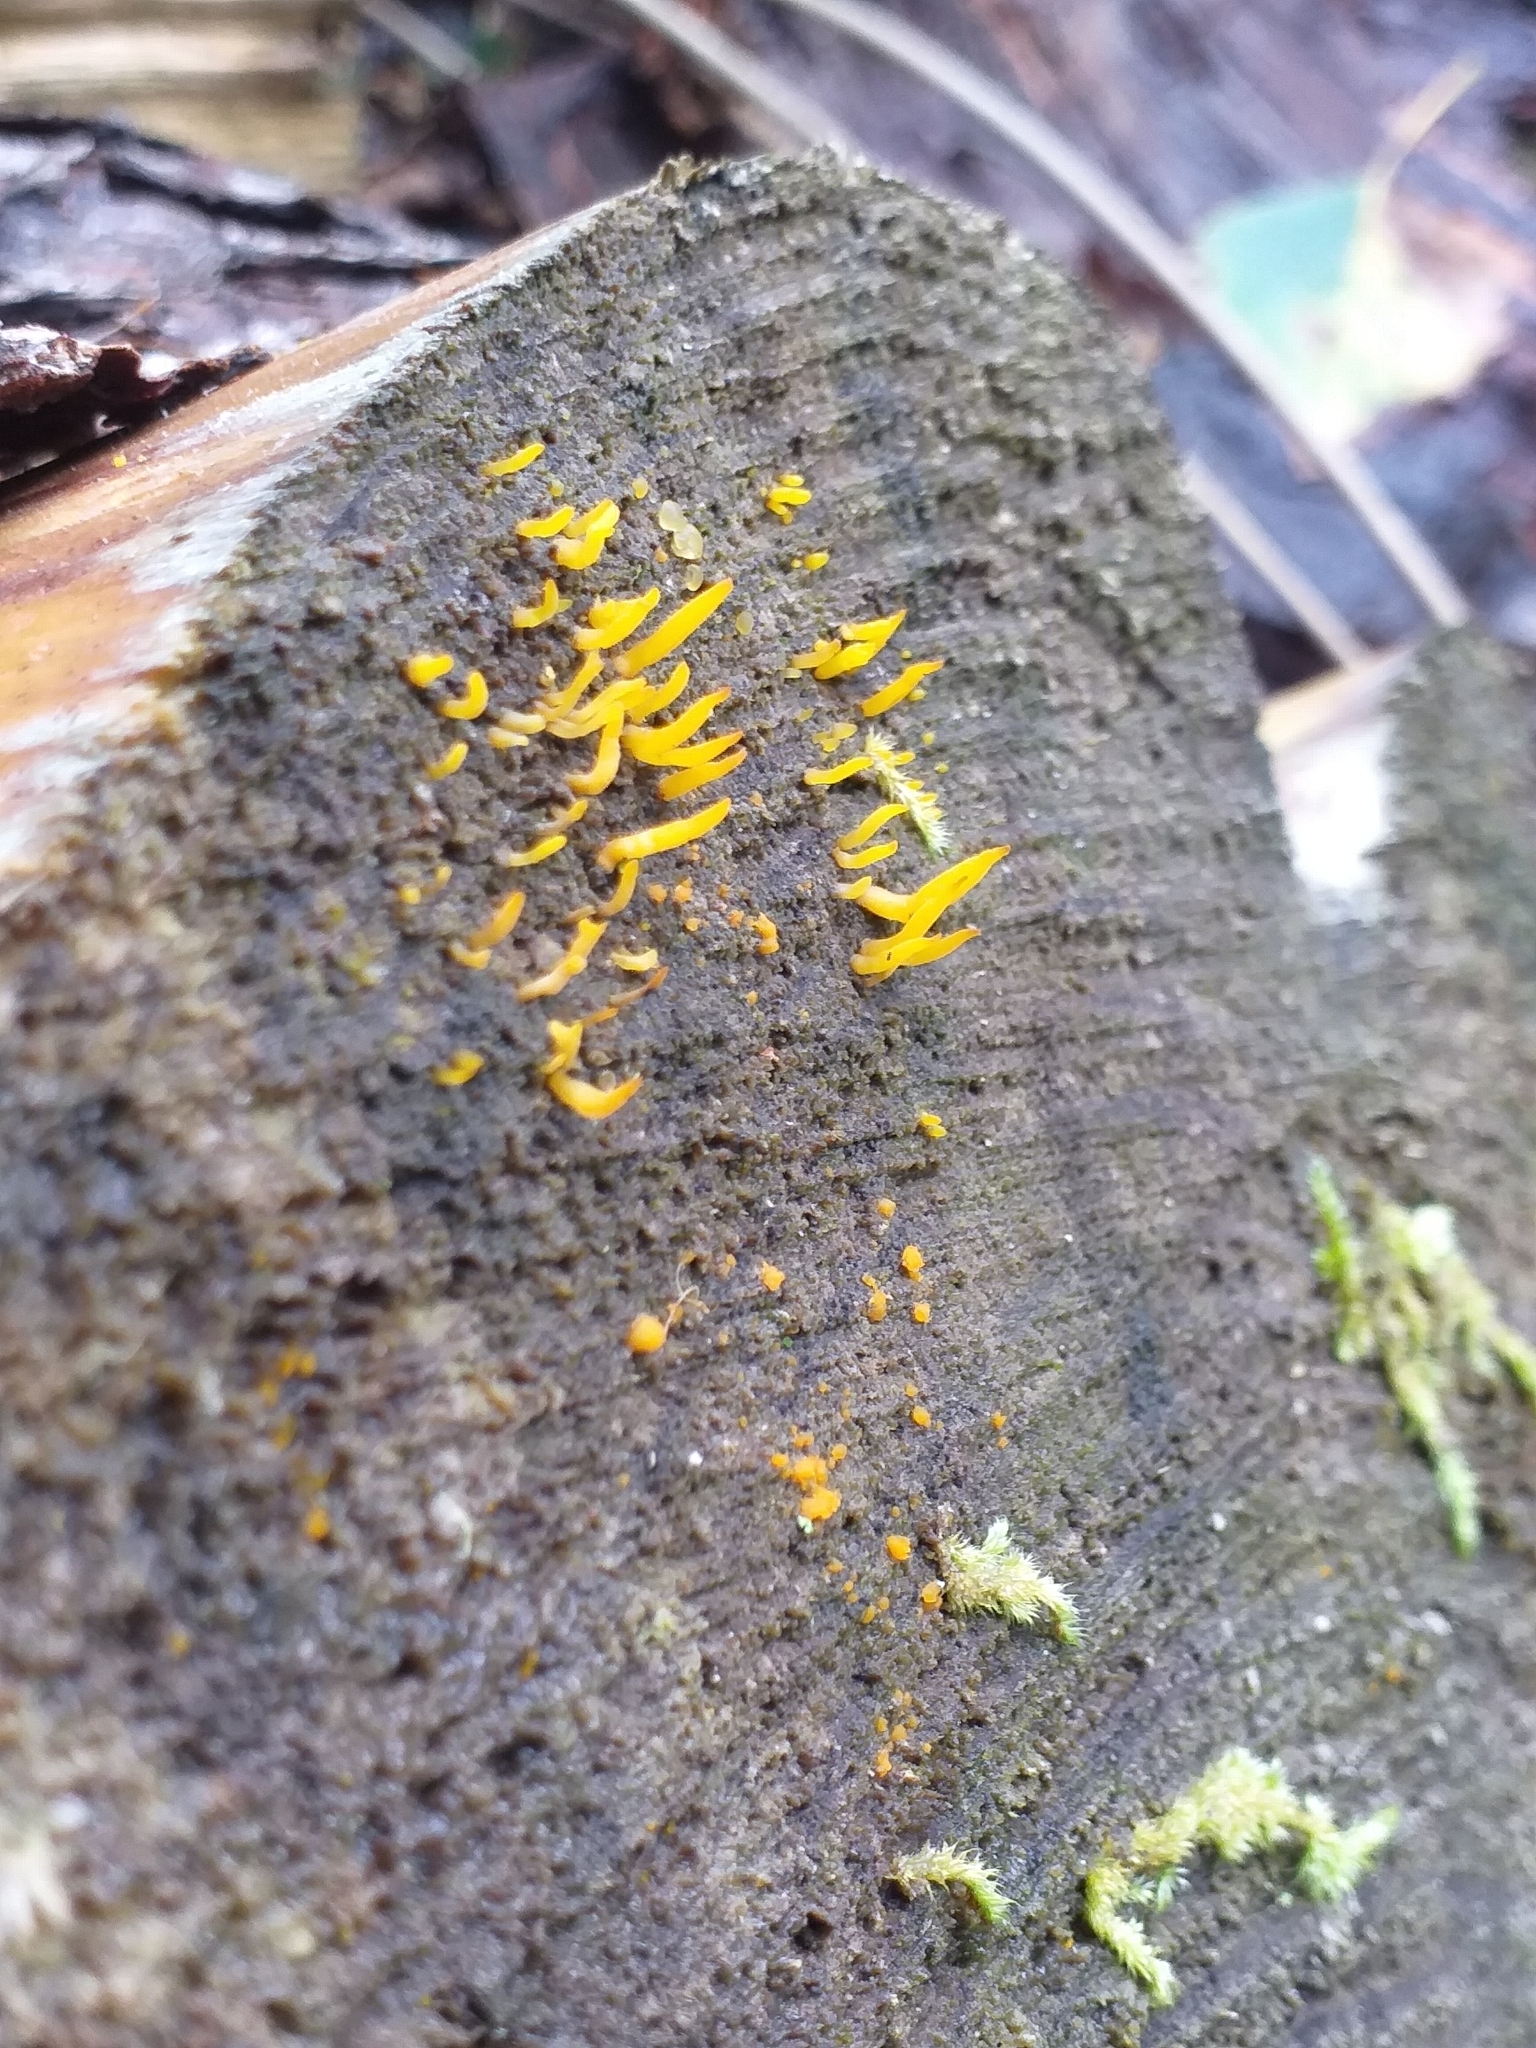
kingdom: Fungi
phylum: Basidiomycota
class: Dacrymycetes
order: Dacrymycetales
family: Dacrymycetaceae
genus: Calocera
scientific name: Calocera cornea
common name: Small stagshorn
